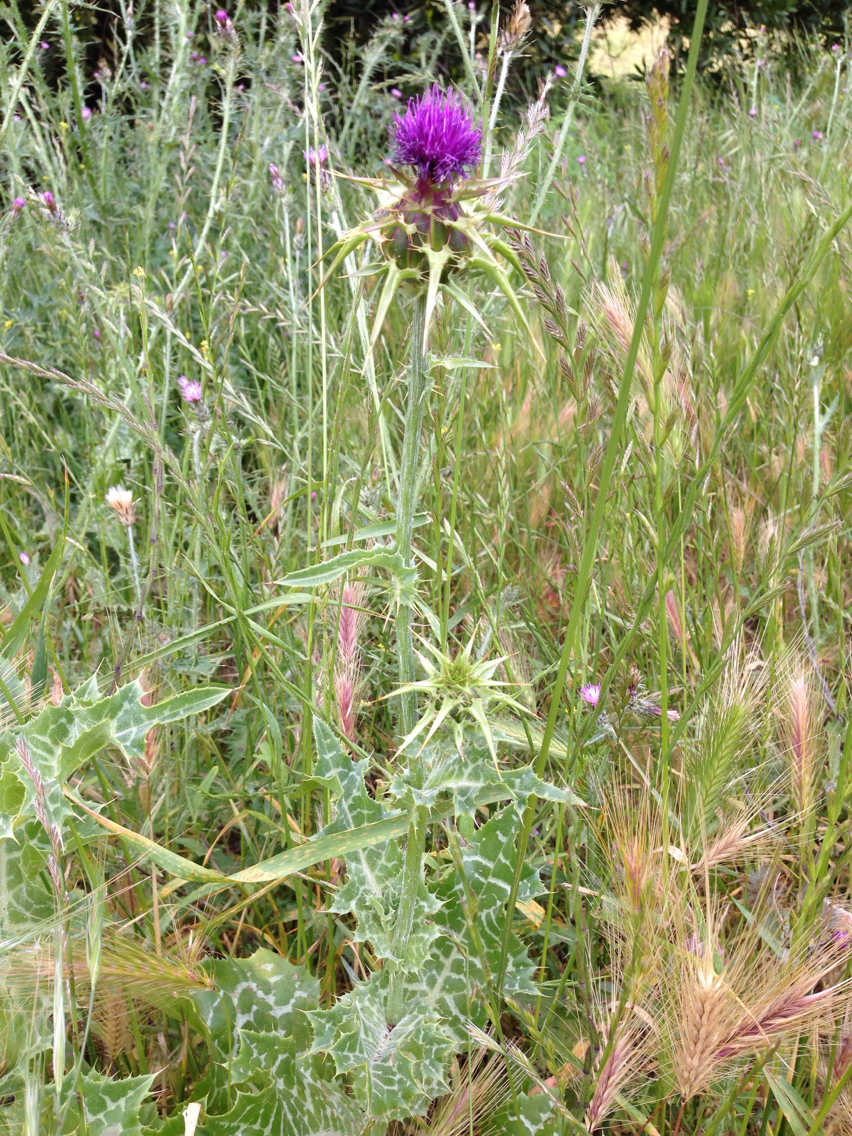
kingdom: Plantae
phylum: Tracheophyta
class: Magnoliopsida
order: Asterales
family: Asteraceae
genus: Silybum
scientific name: Silybum marianum
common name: Milk thistle
